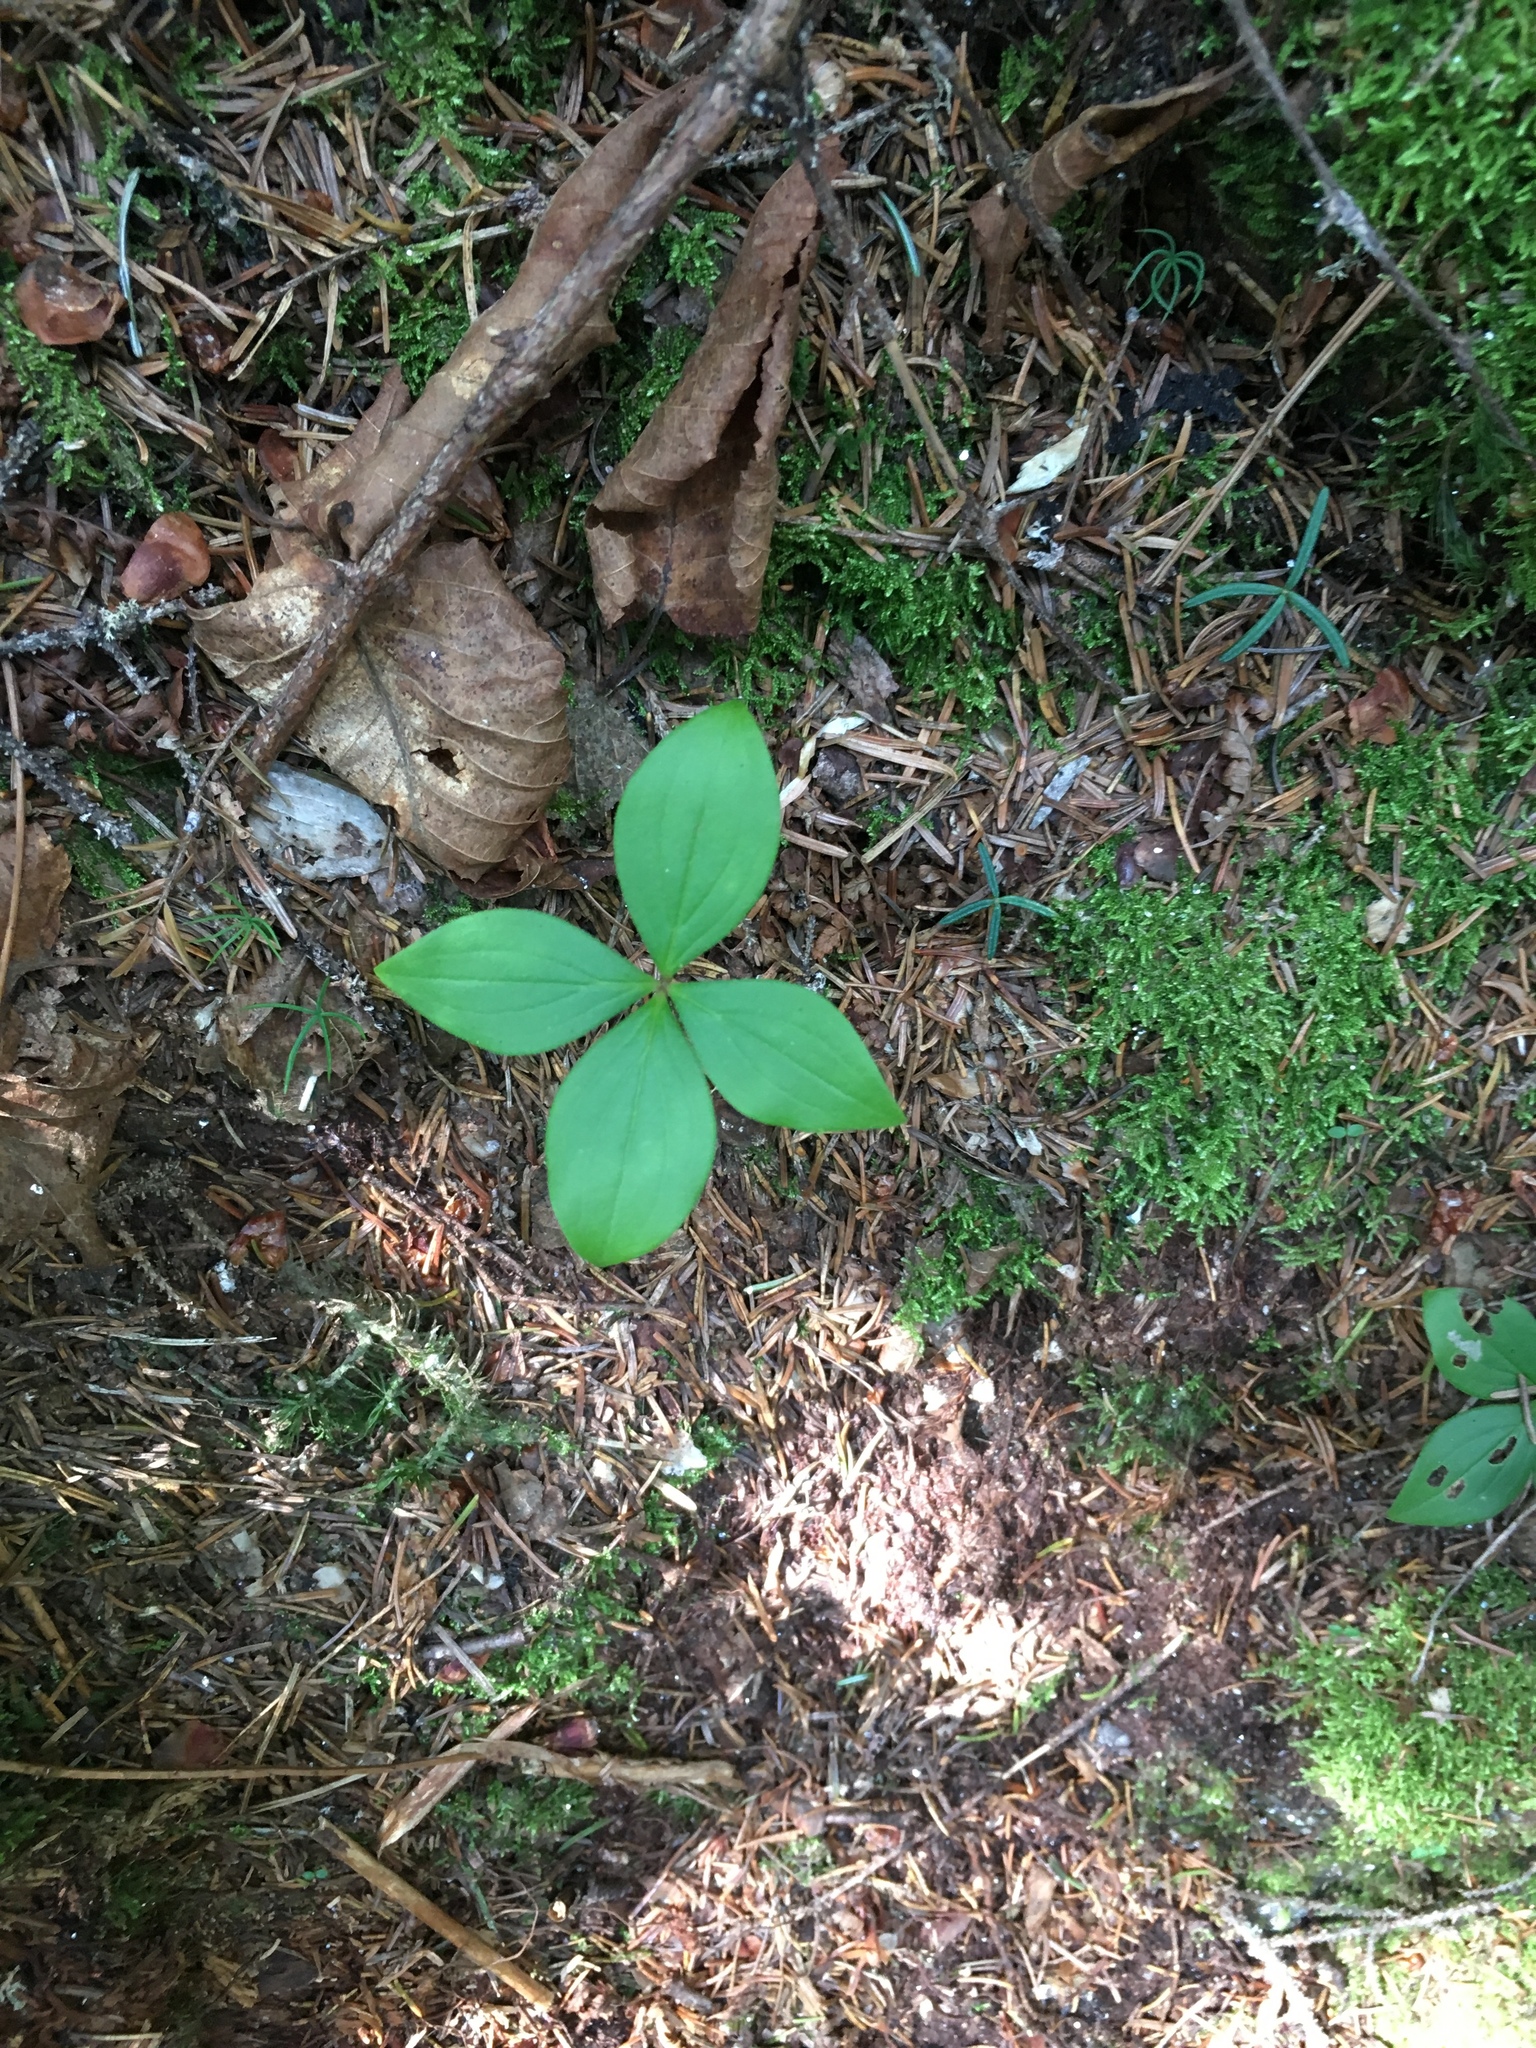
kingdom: Plantae
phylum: Tracheophyta
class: Magnoliopsida
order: Cornales
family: Cornaceae
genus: Cornus
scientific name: Cornus canadensis
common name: Creeping dogwood
